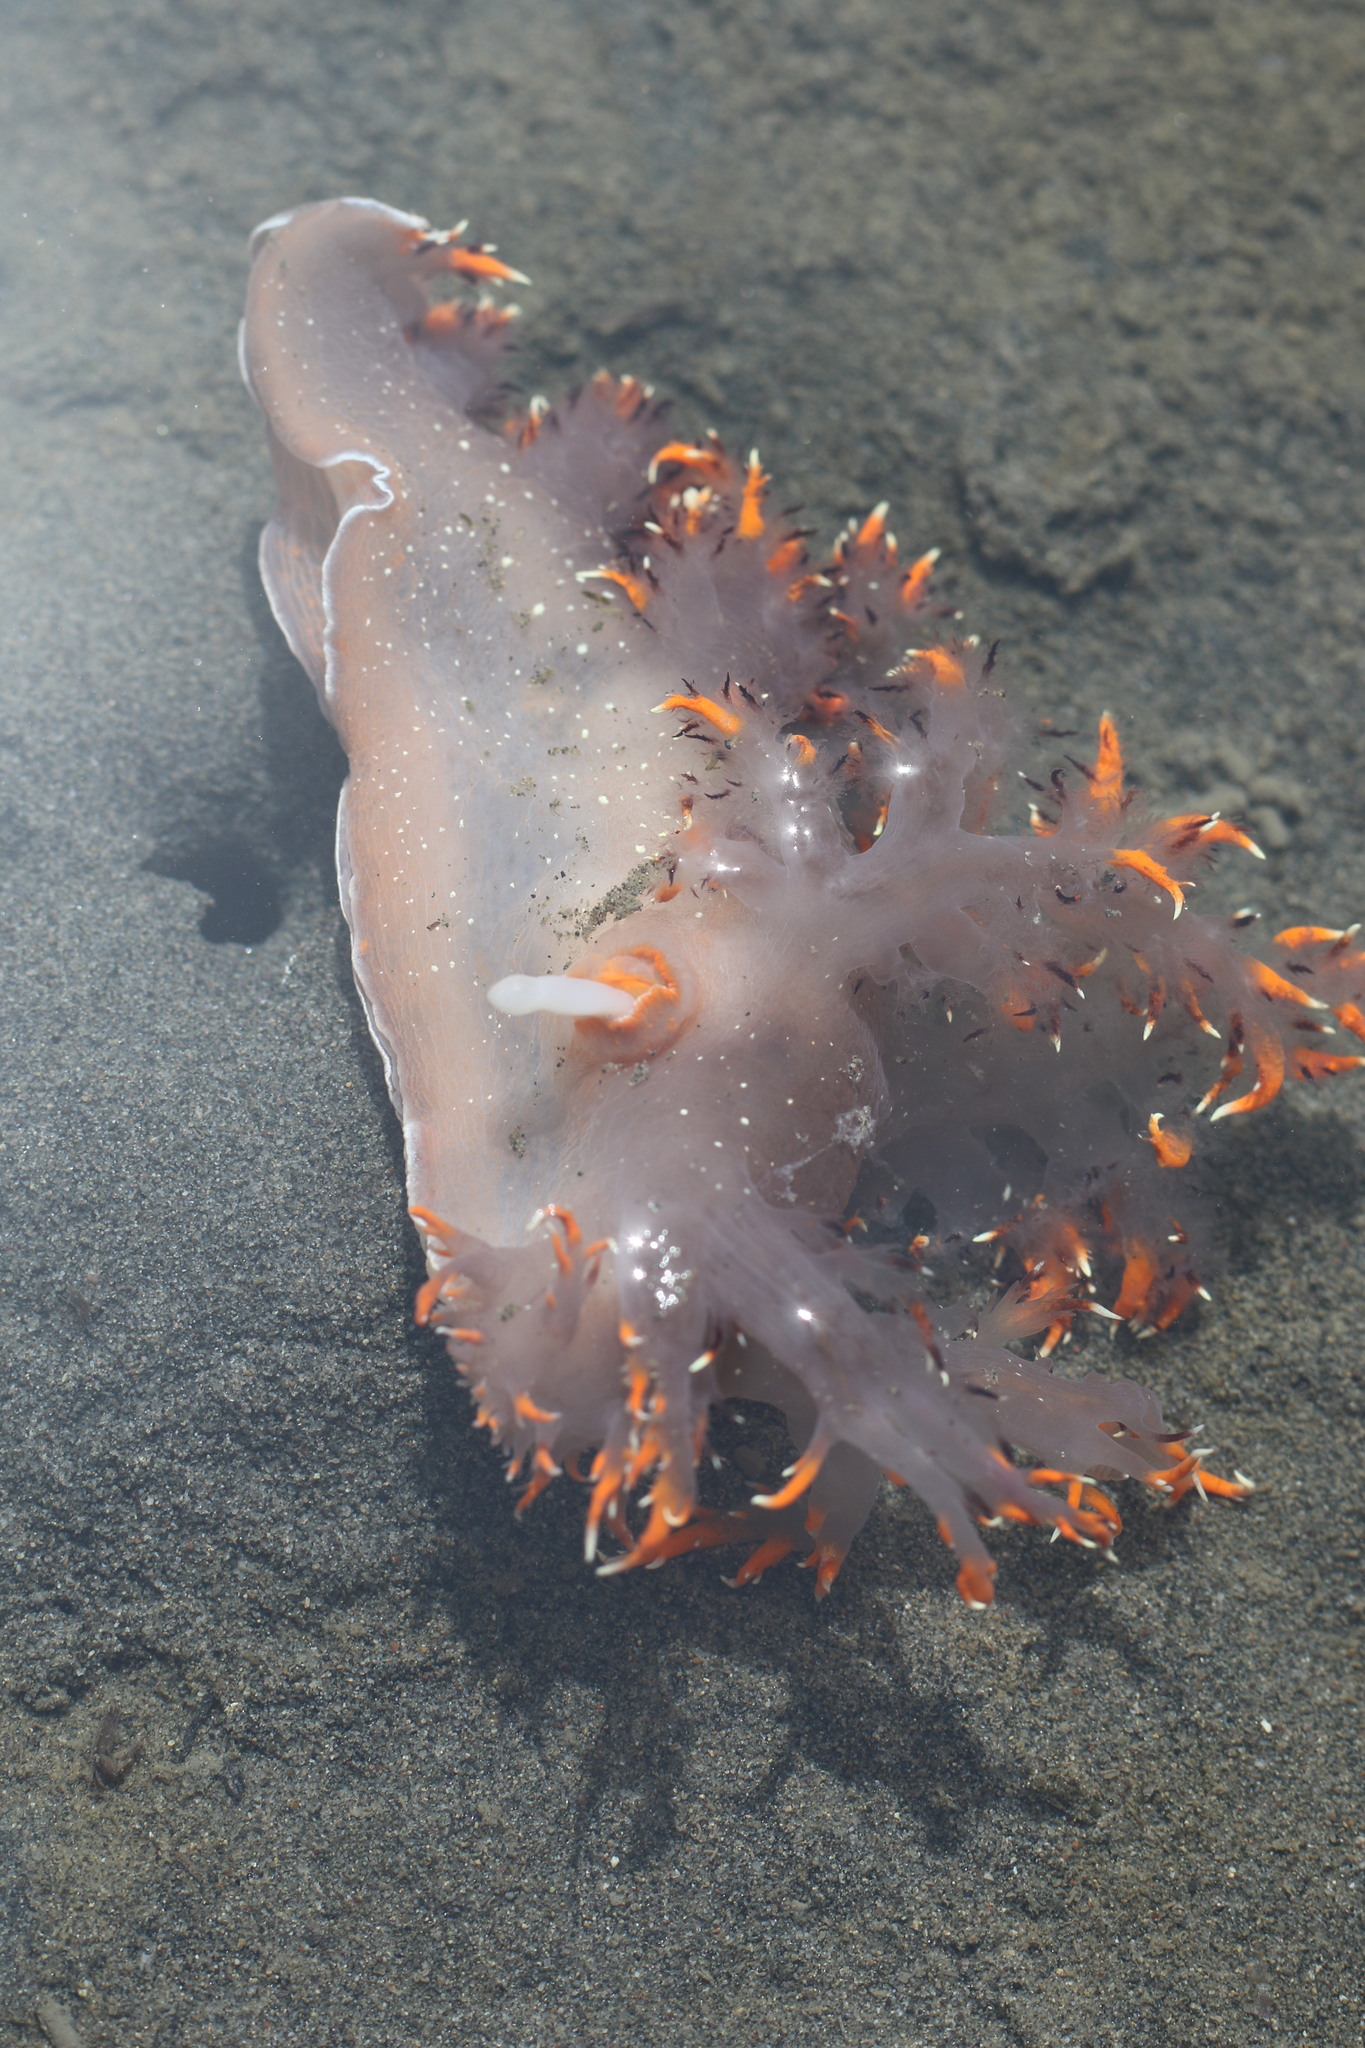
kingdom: Animalia
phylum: Mollusca
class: Gastropoda
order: Nudibranchia
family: Dendronotidae
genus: Dendronotus
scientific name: Dendronotus iris
